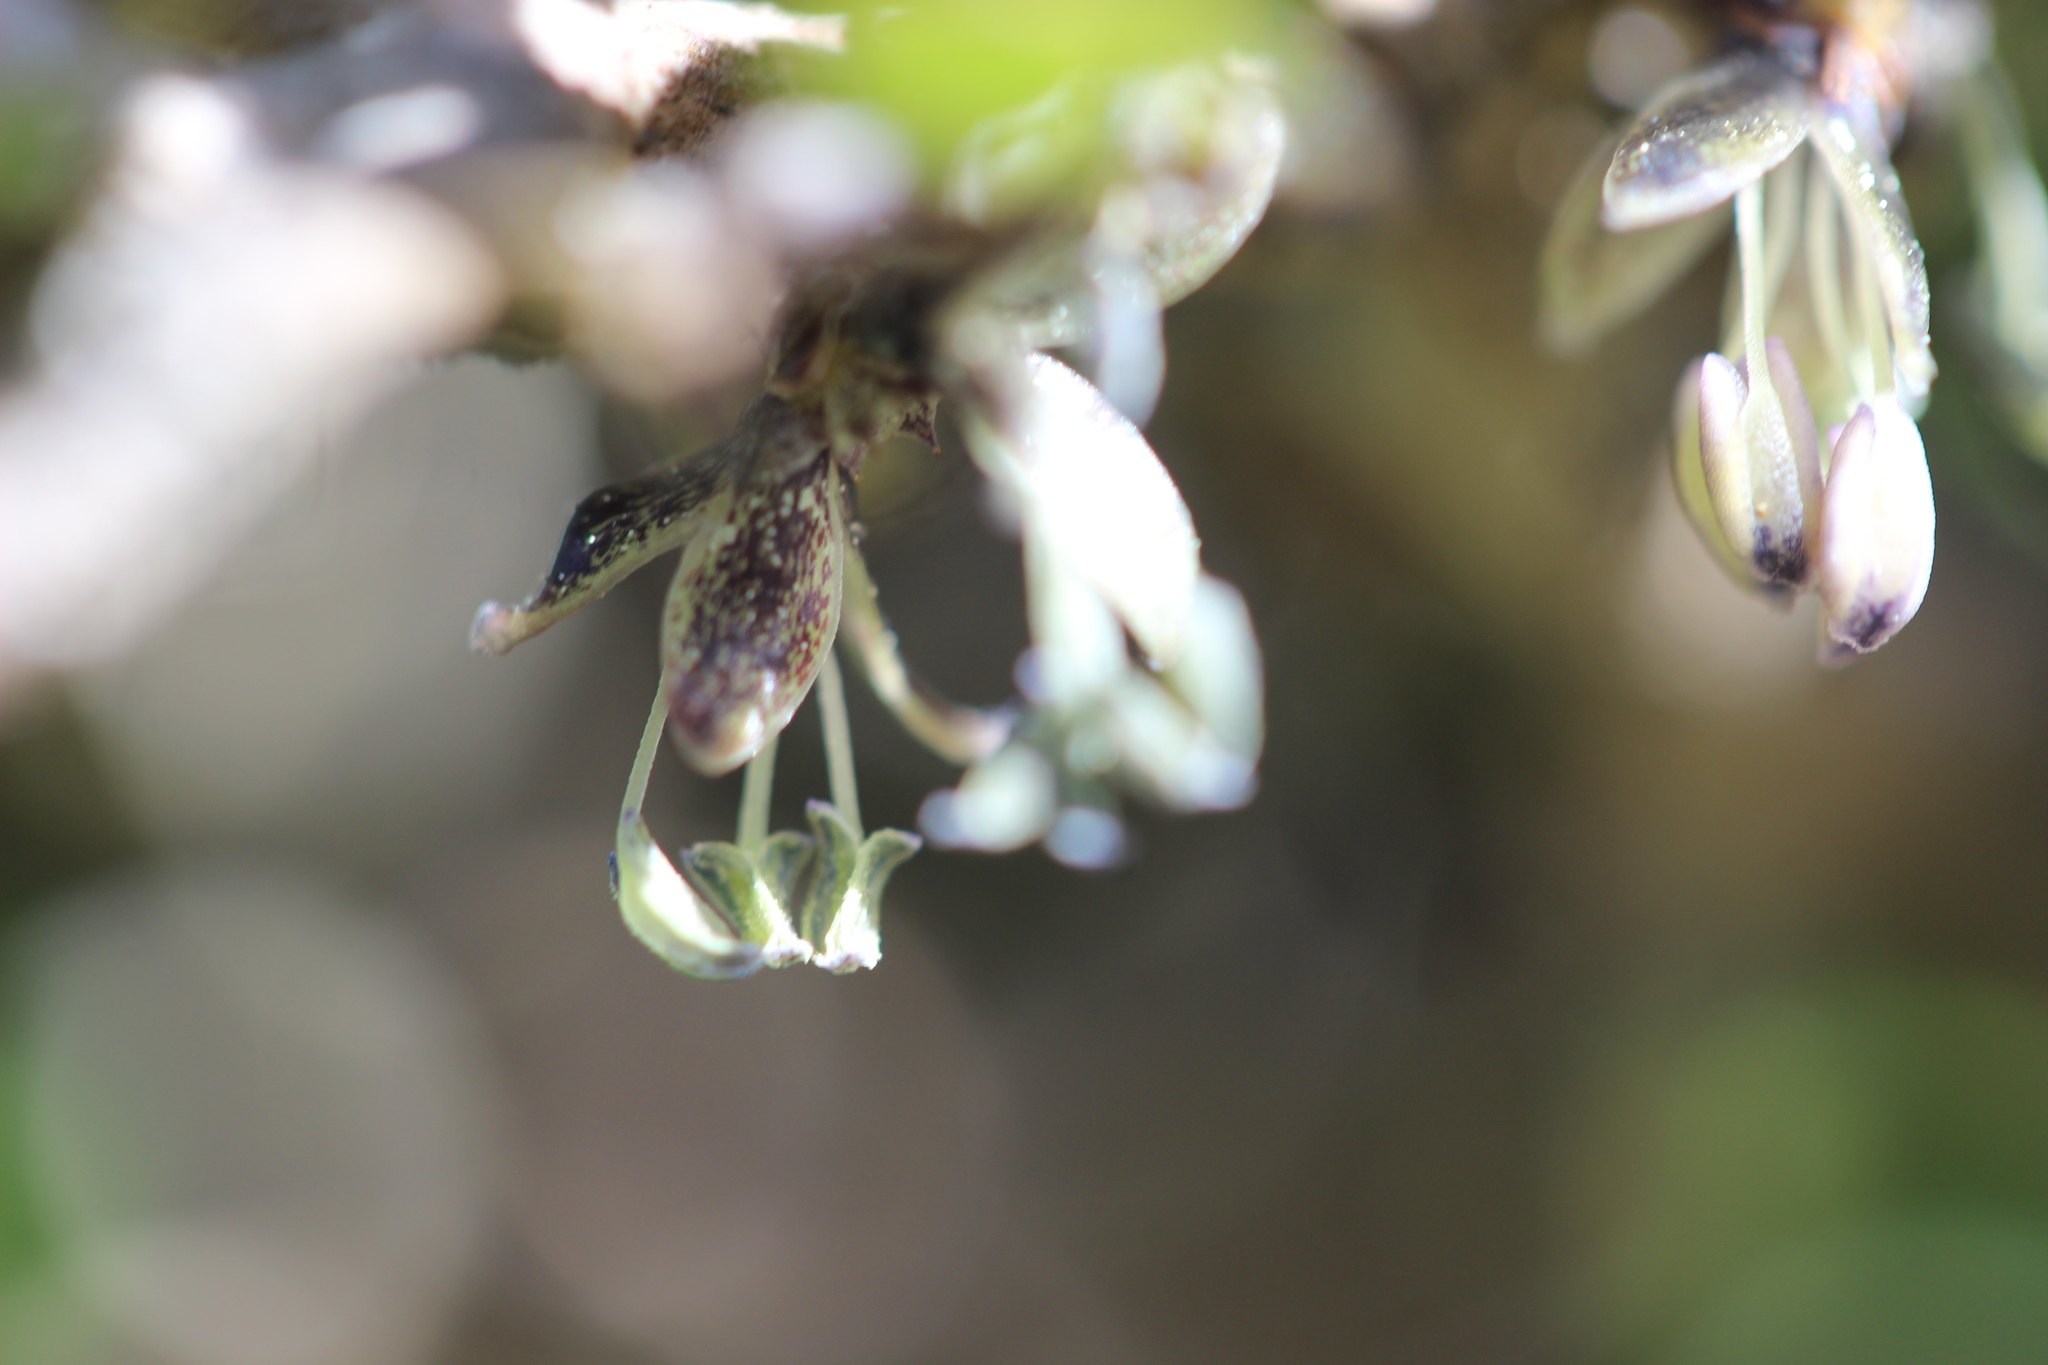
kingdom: Plantae
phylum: Tracheophyta
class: Magnoliopsida
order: Gentianales
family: Rubiaceae
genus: Coprosma
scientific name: Coprosma propinqua
